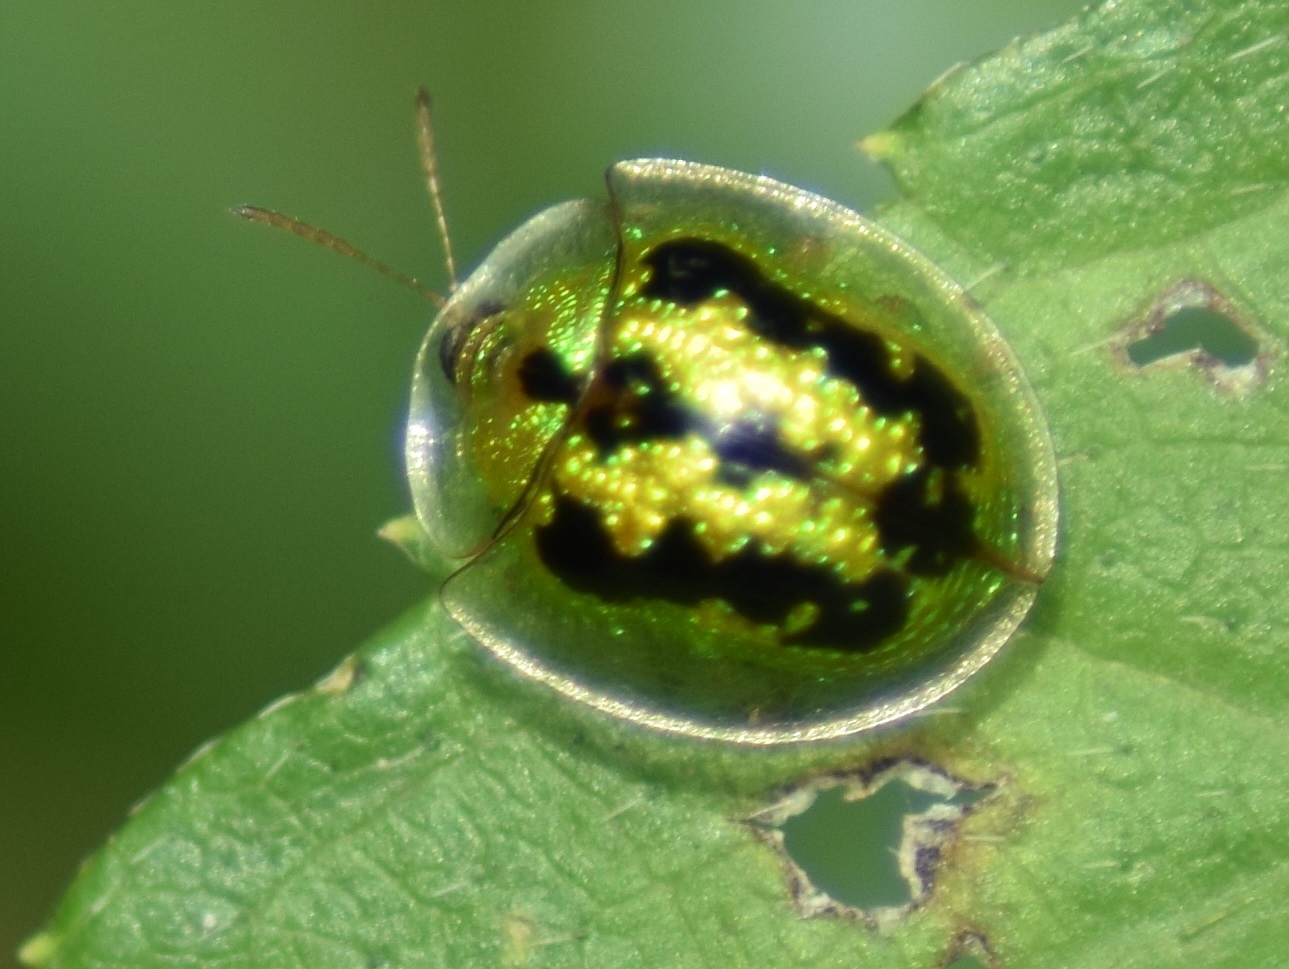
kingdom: Animalia
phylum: Arthropoda
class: Insecta
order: Coleoptera
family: Chrysomelidae
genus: Cassida
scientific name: Cassida circumdata
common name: Tortoise beetle
